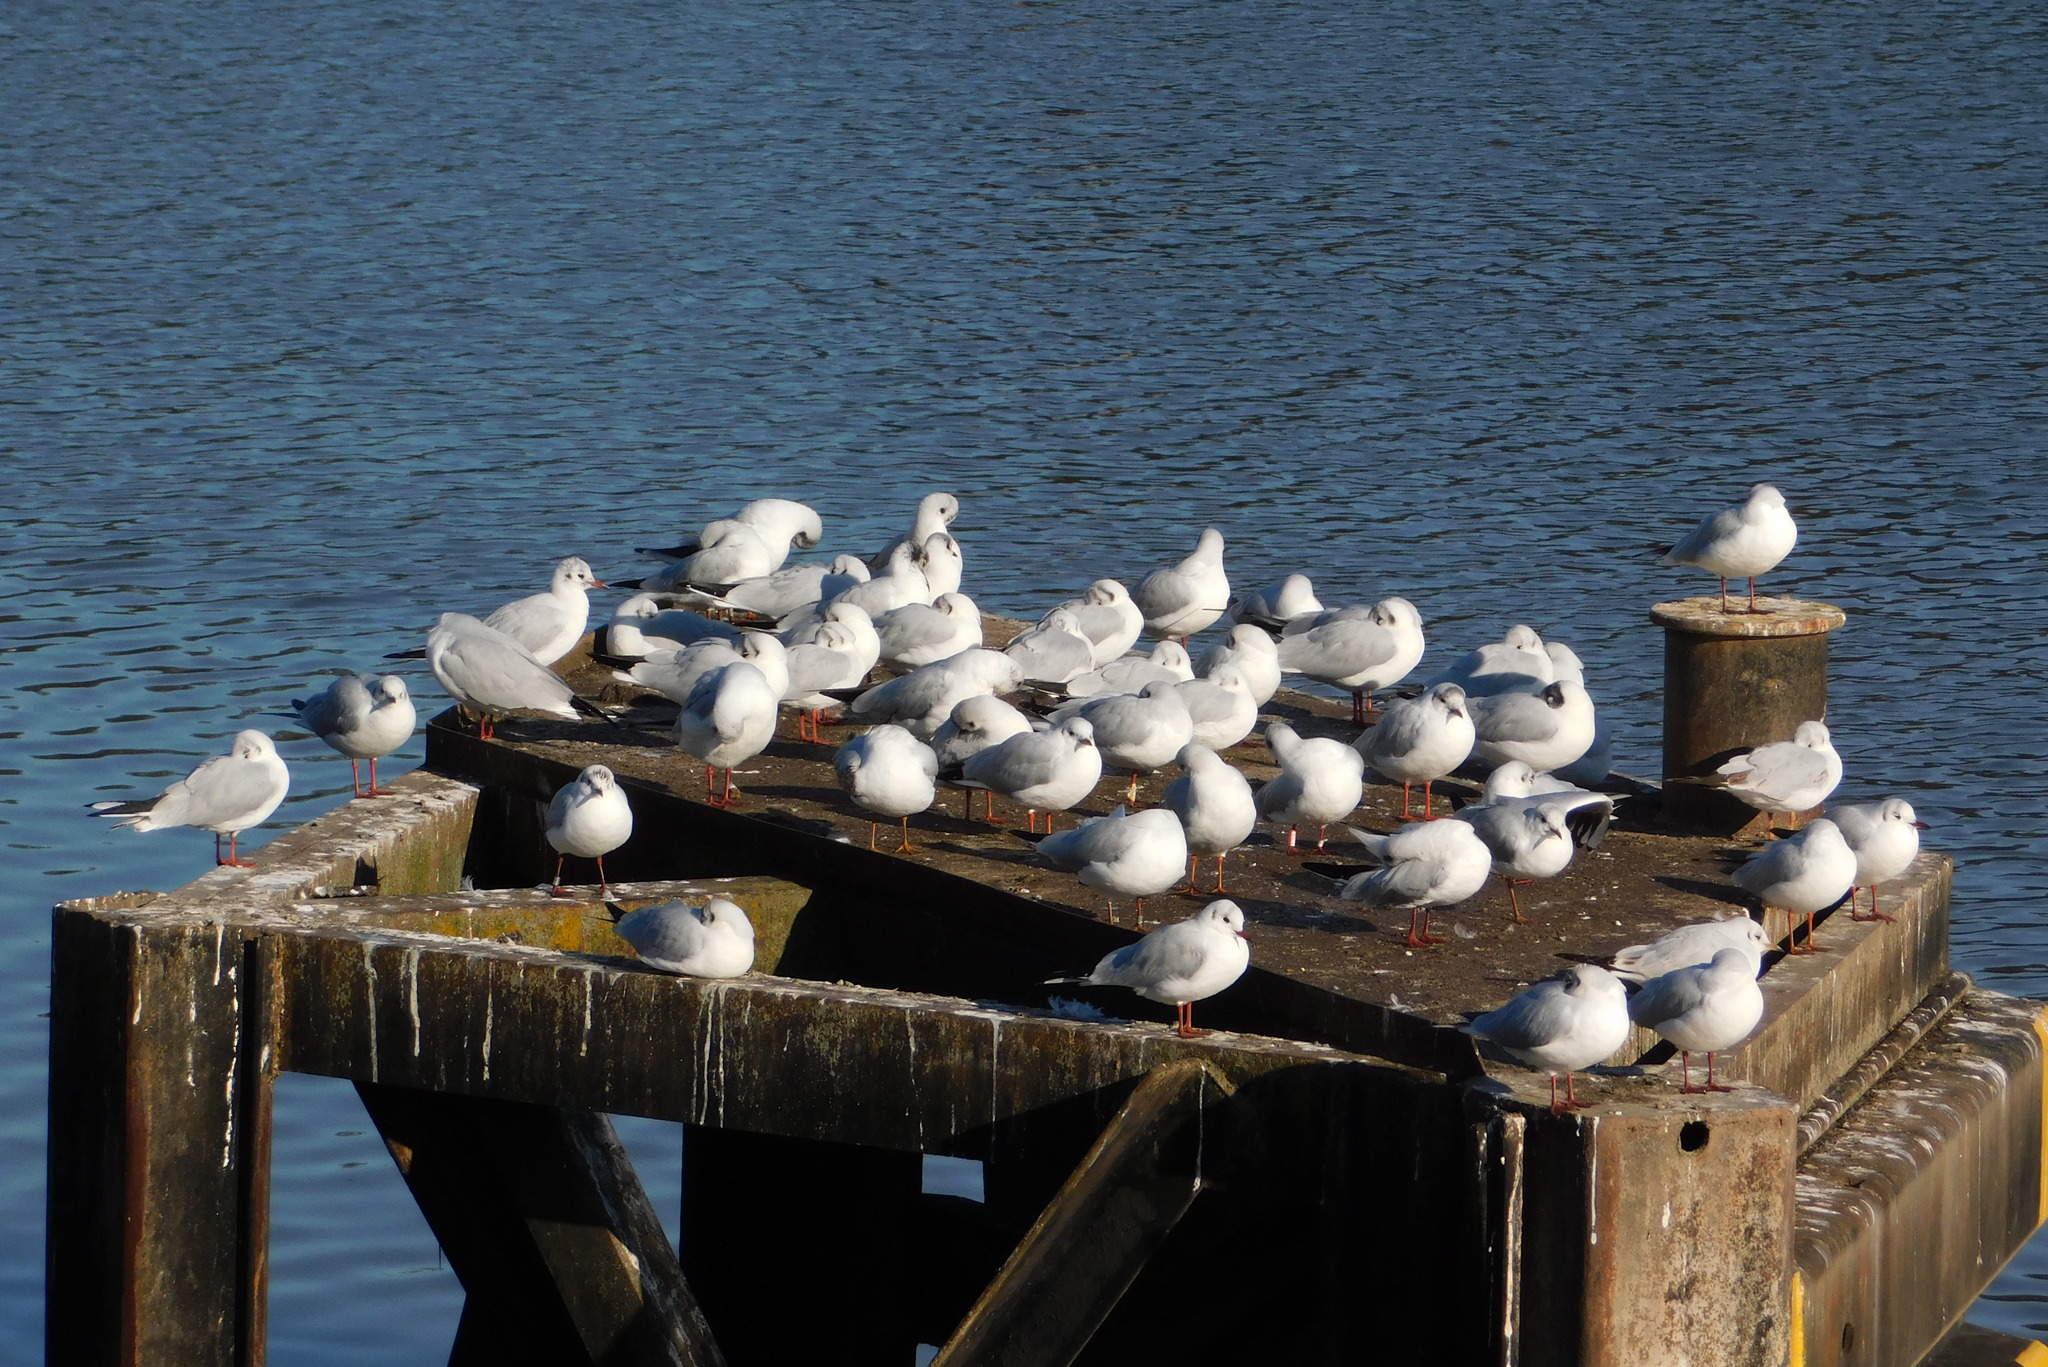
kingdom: Animalia
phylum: Chordata
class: Aves
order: Charadriiformes
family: Laridae
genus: Chroicocephalus
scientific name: Chroicocephalus ridibundus
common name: Black-headed gull
